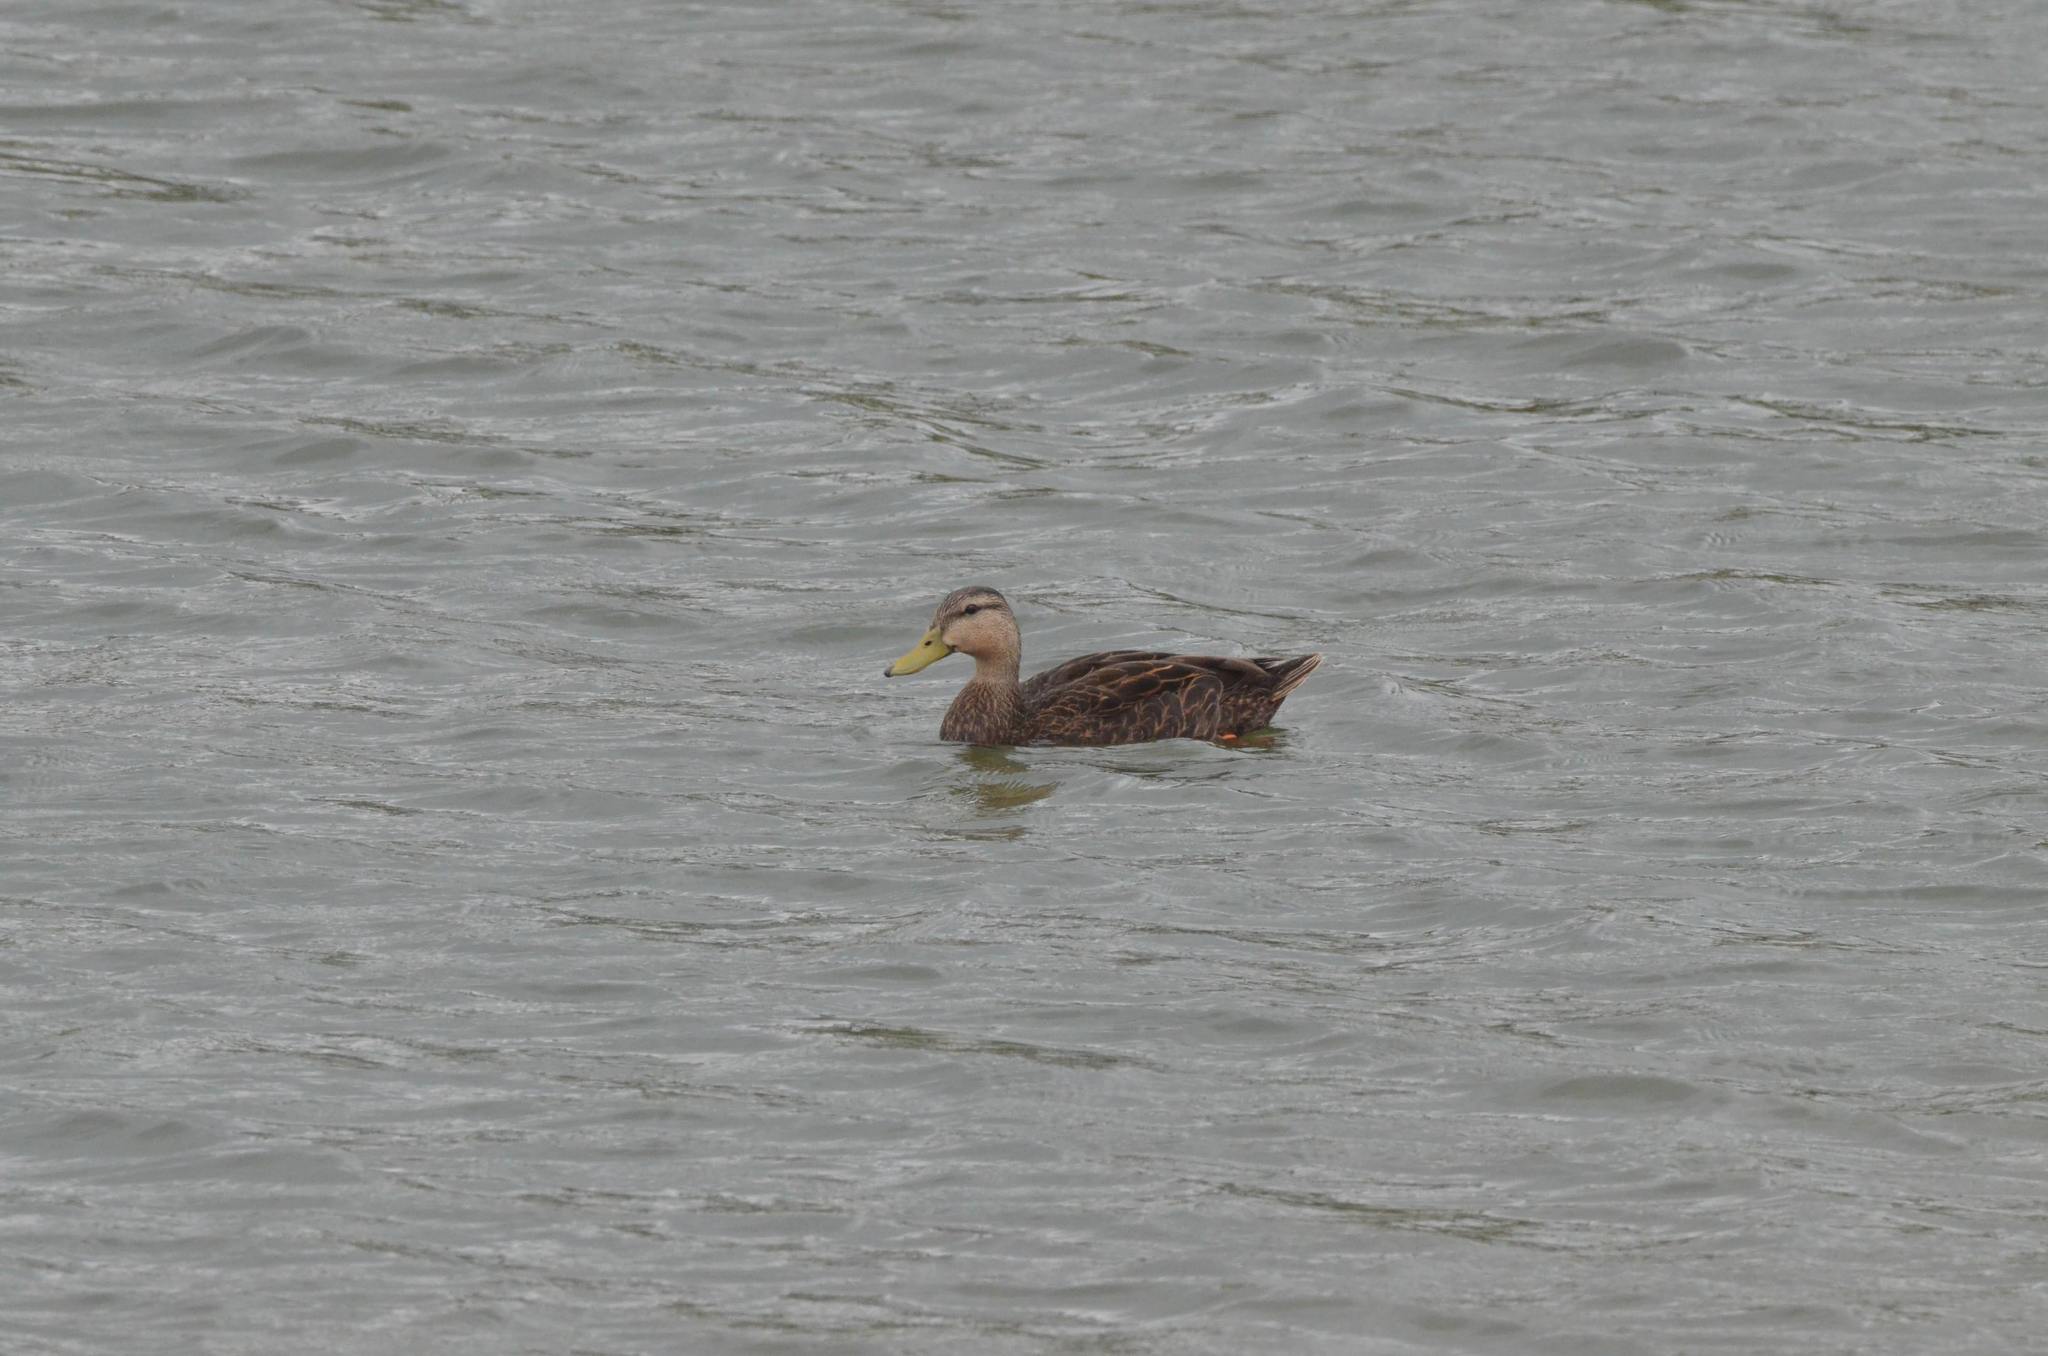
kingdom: Animalia
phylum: Chordata
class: Aves
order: Anseriformes
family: Anatidae
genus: Anas
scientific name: Anas fulvigula
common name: Mottled duck
